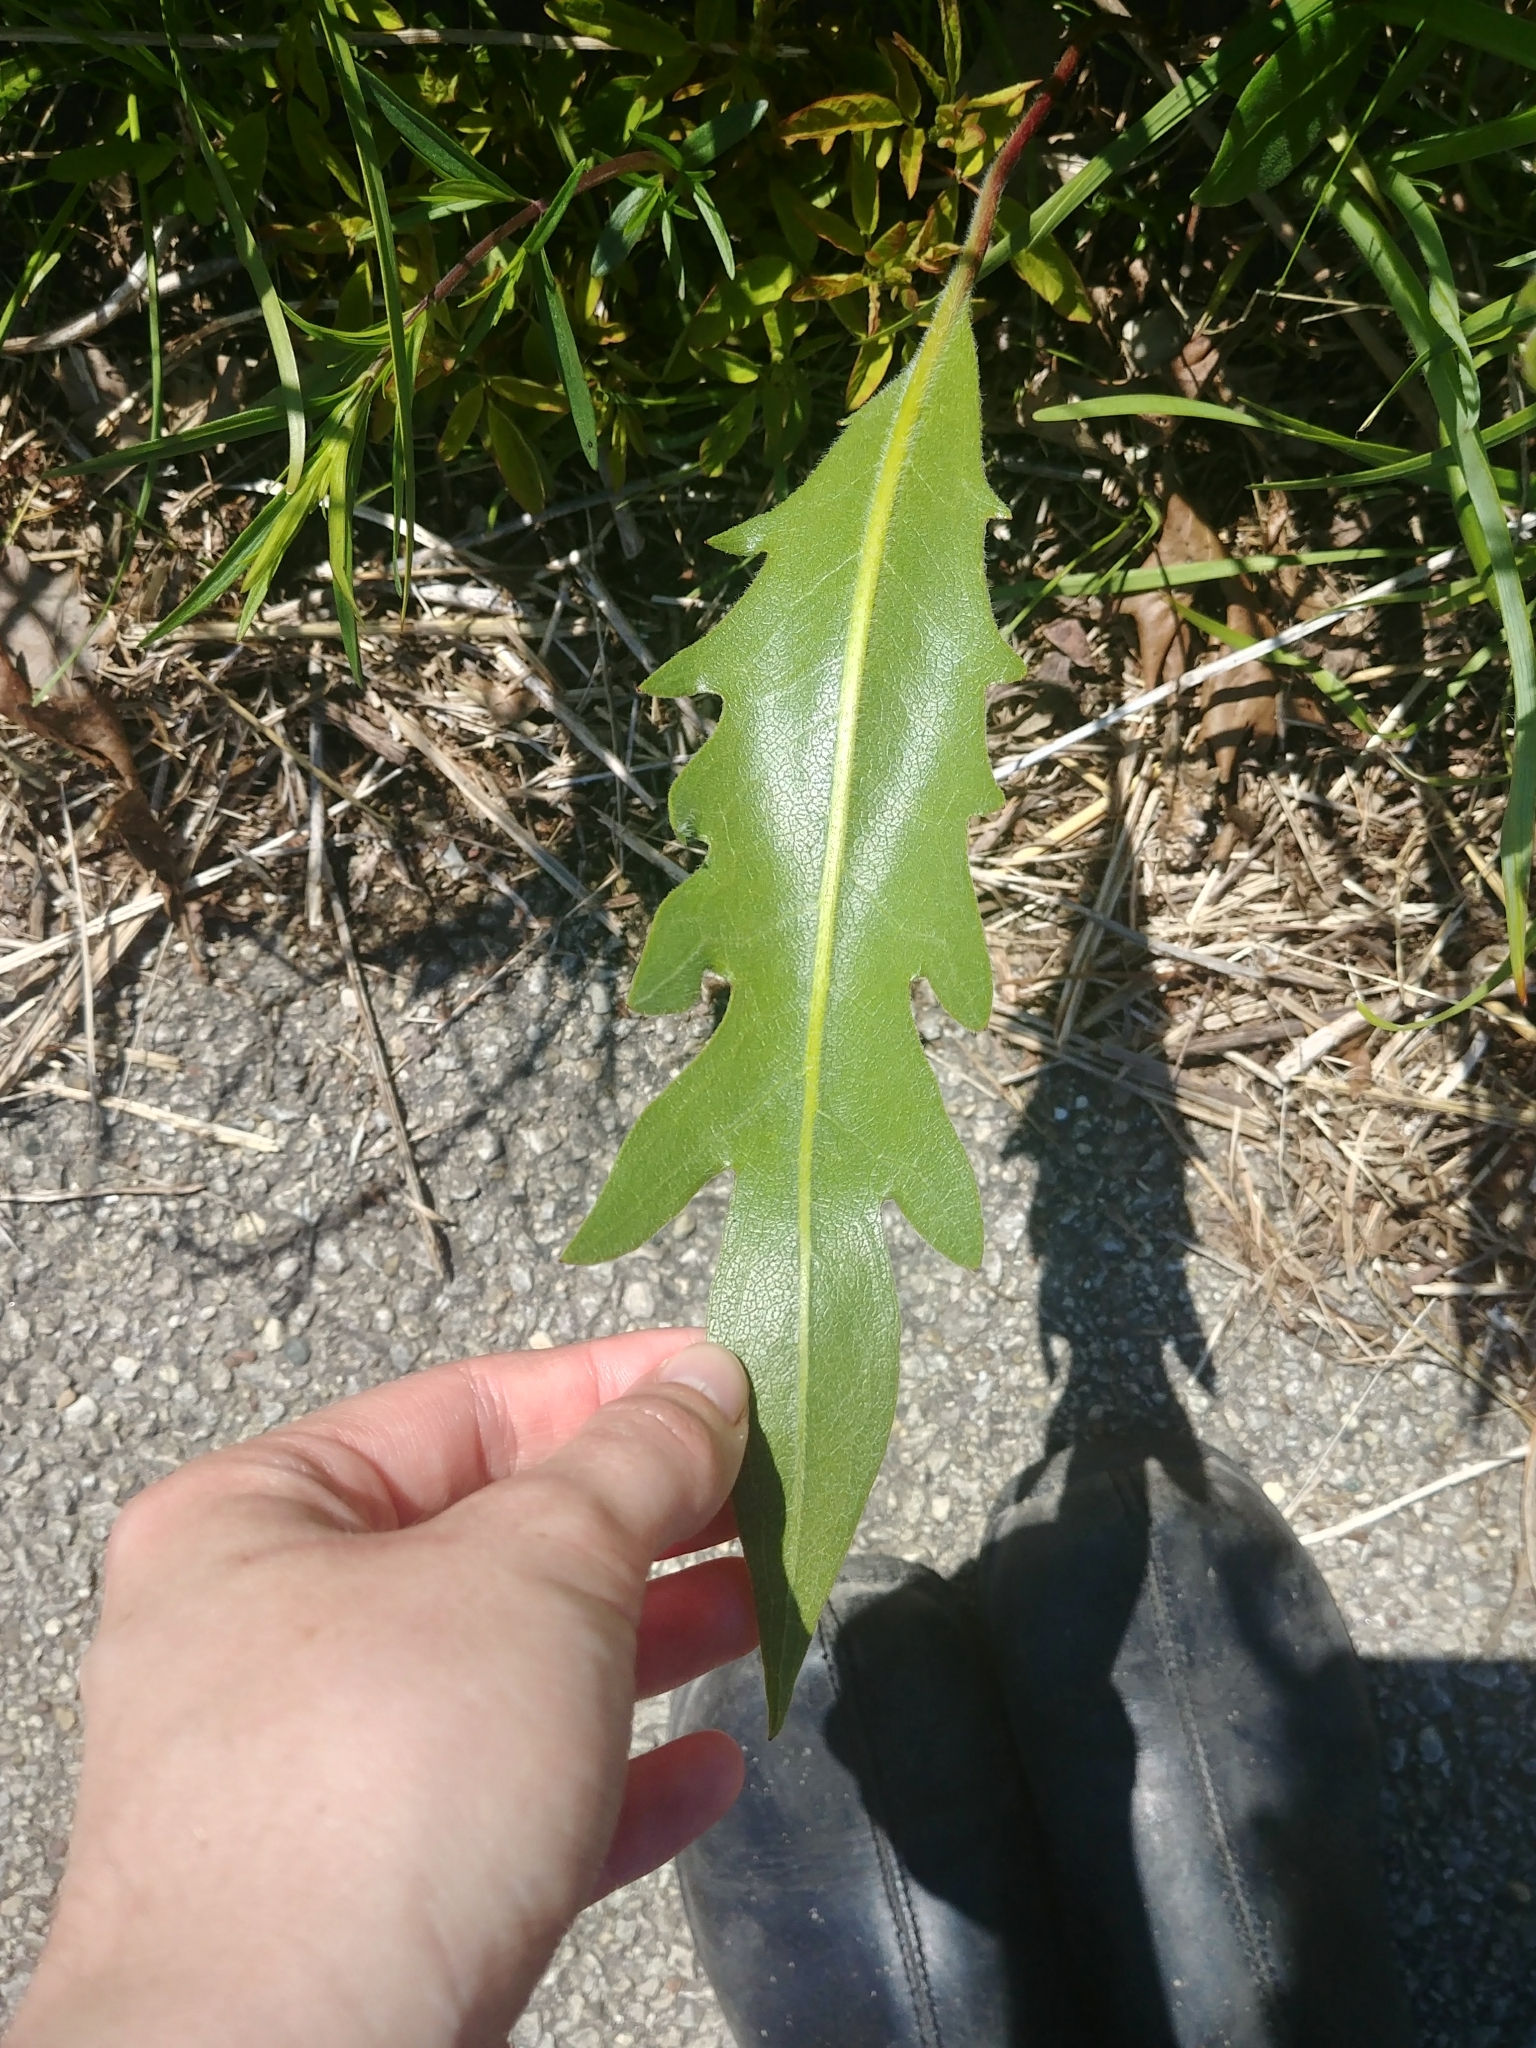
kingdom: Plantae
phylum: Tracheophyta
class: Magnoliopsida
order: Asterales
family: Asteraceae
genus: Silphium
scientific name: Silphium laciniatum
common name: Polarplant
